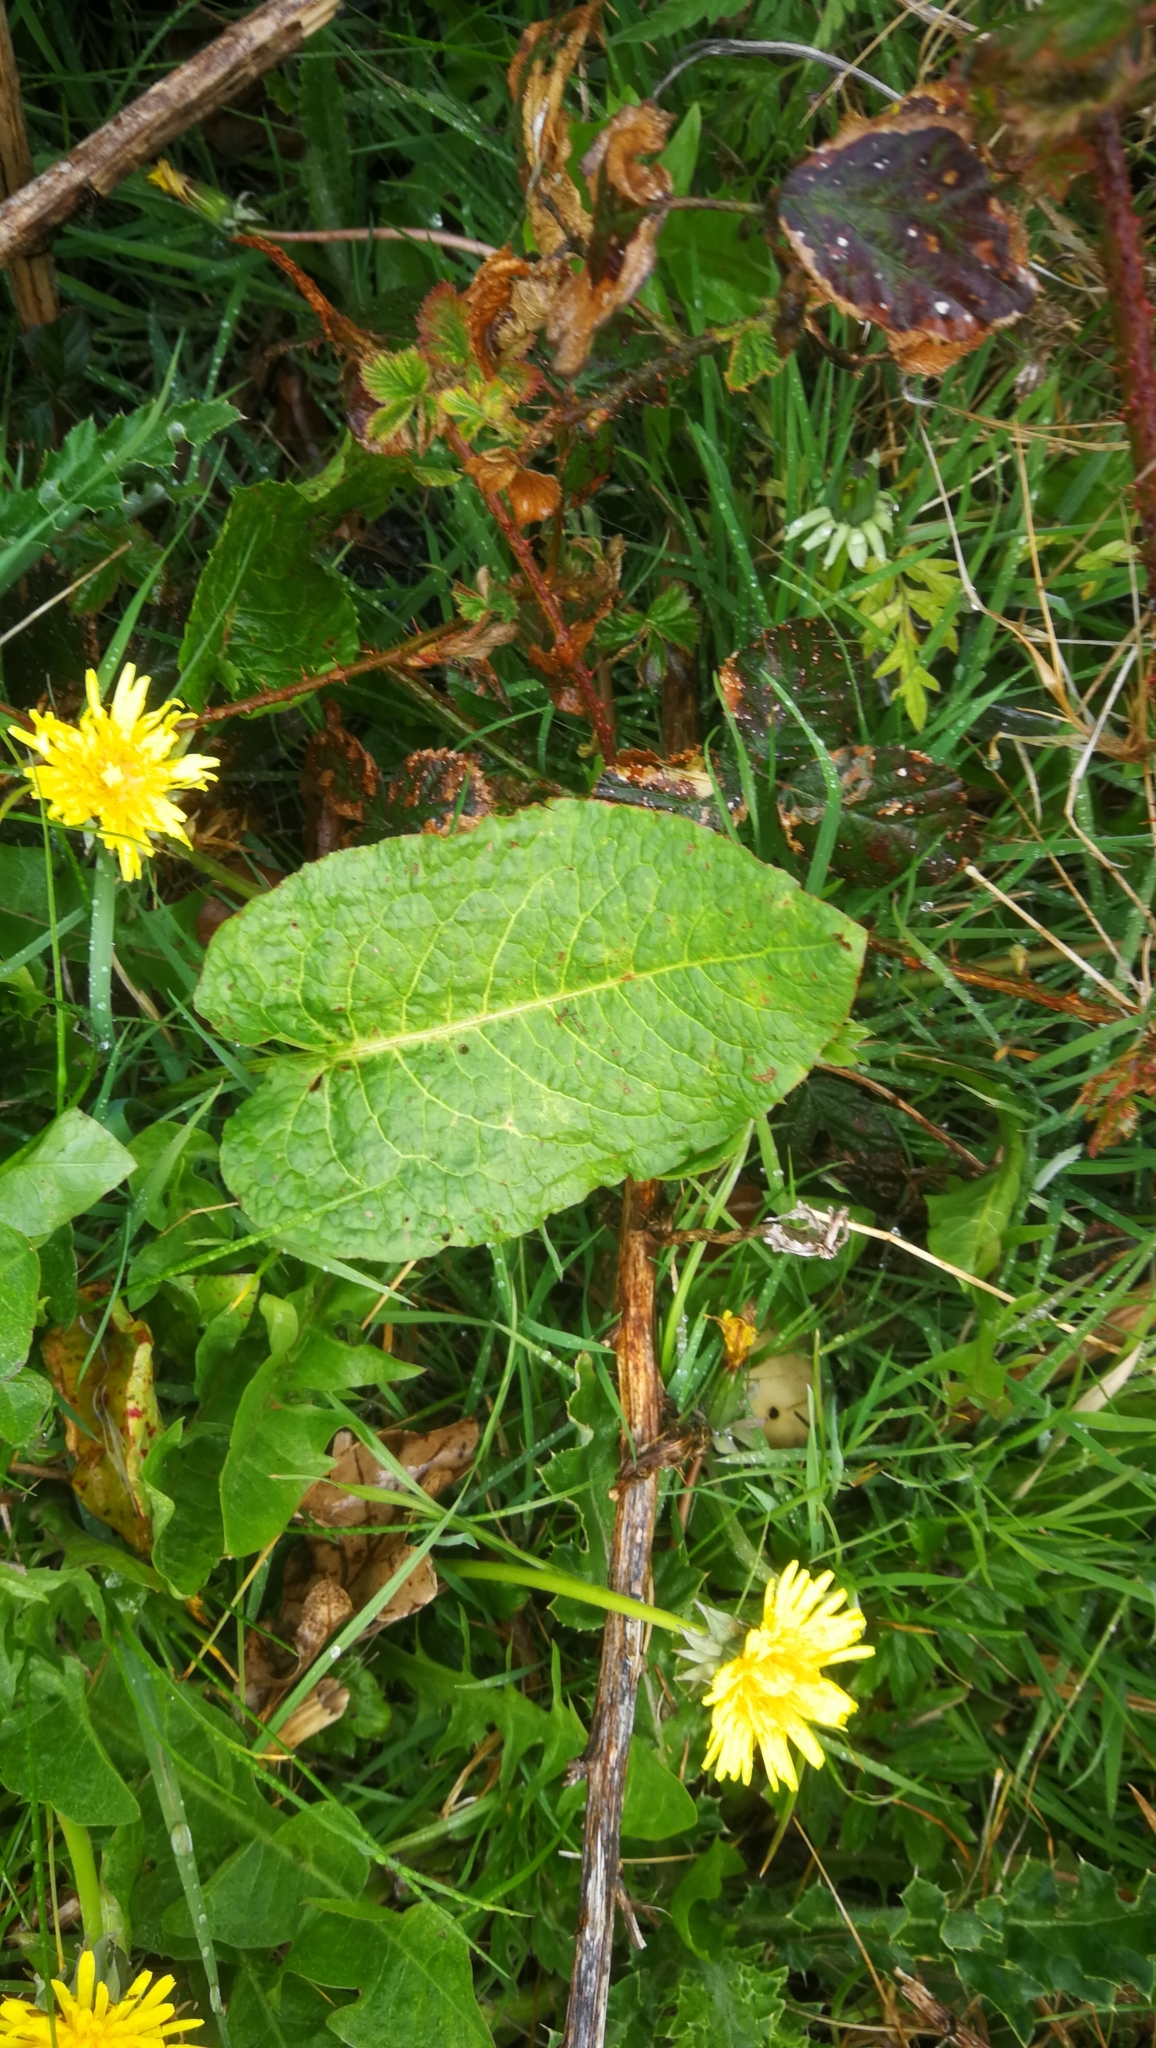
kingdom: Plantae
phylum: Tracheophyta
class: Magnoliopsida
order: Caryophyllales
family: Polygonaceae
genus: Rumex
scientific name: Rumex obtusifolius
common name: Bitter dock
